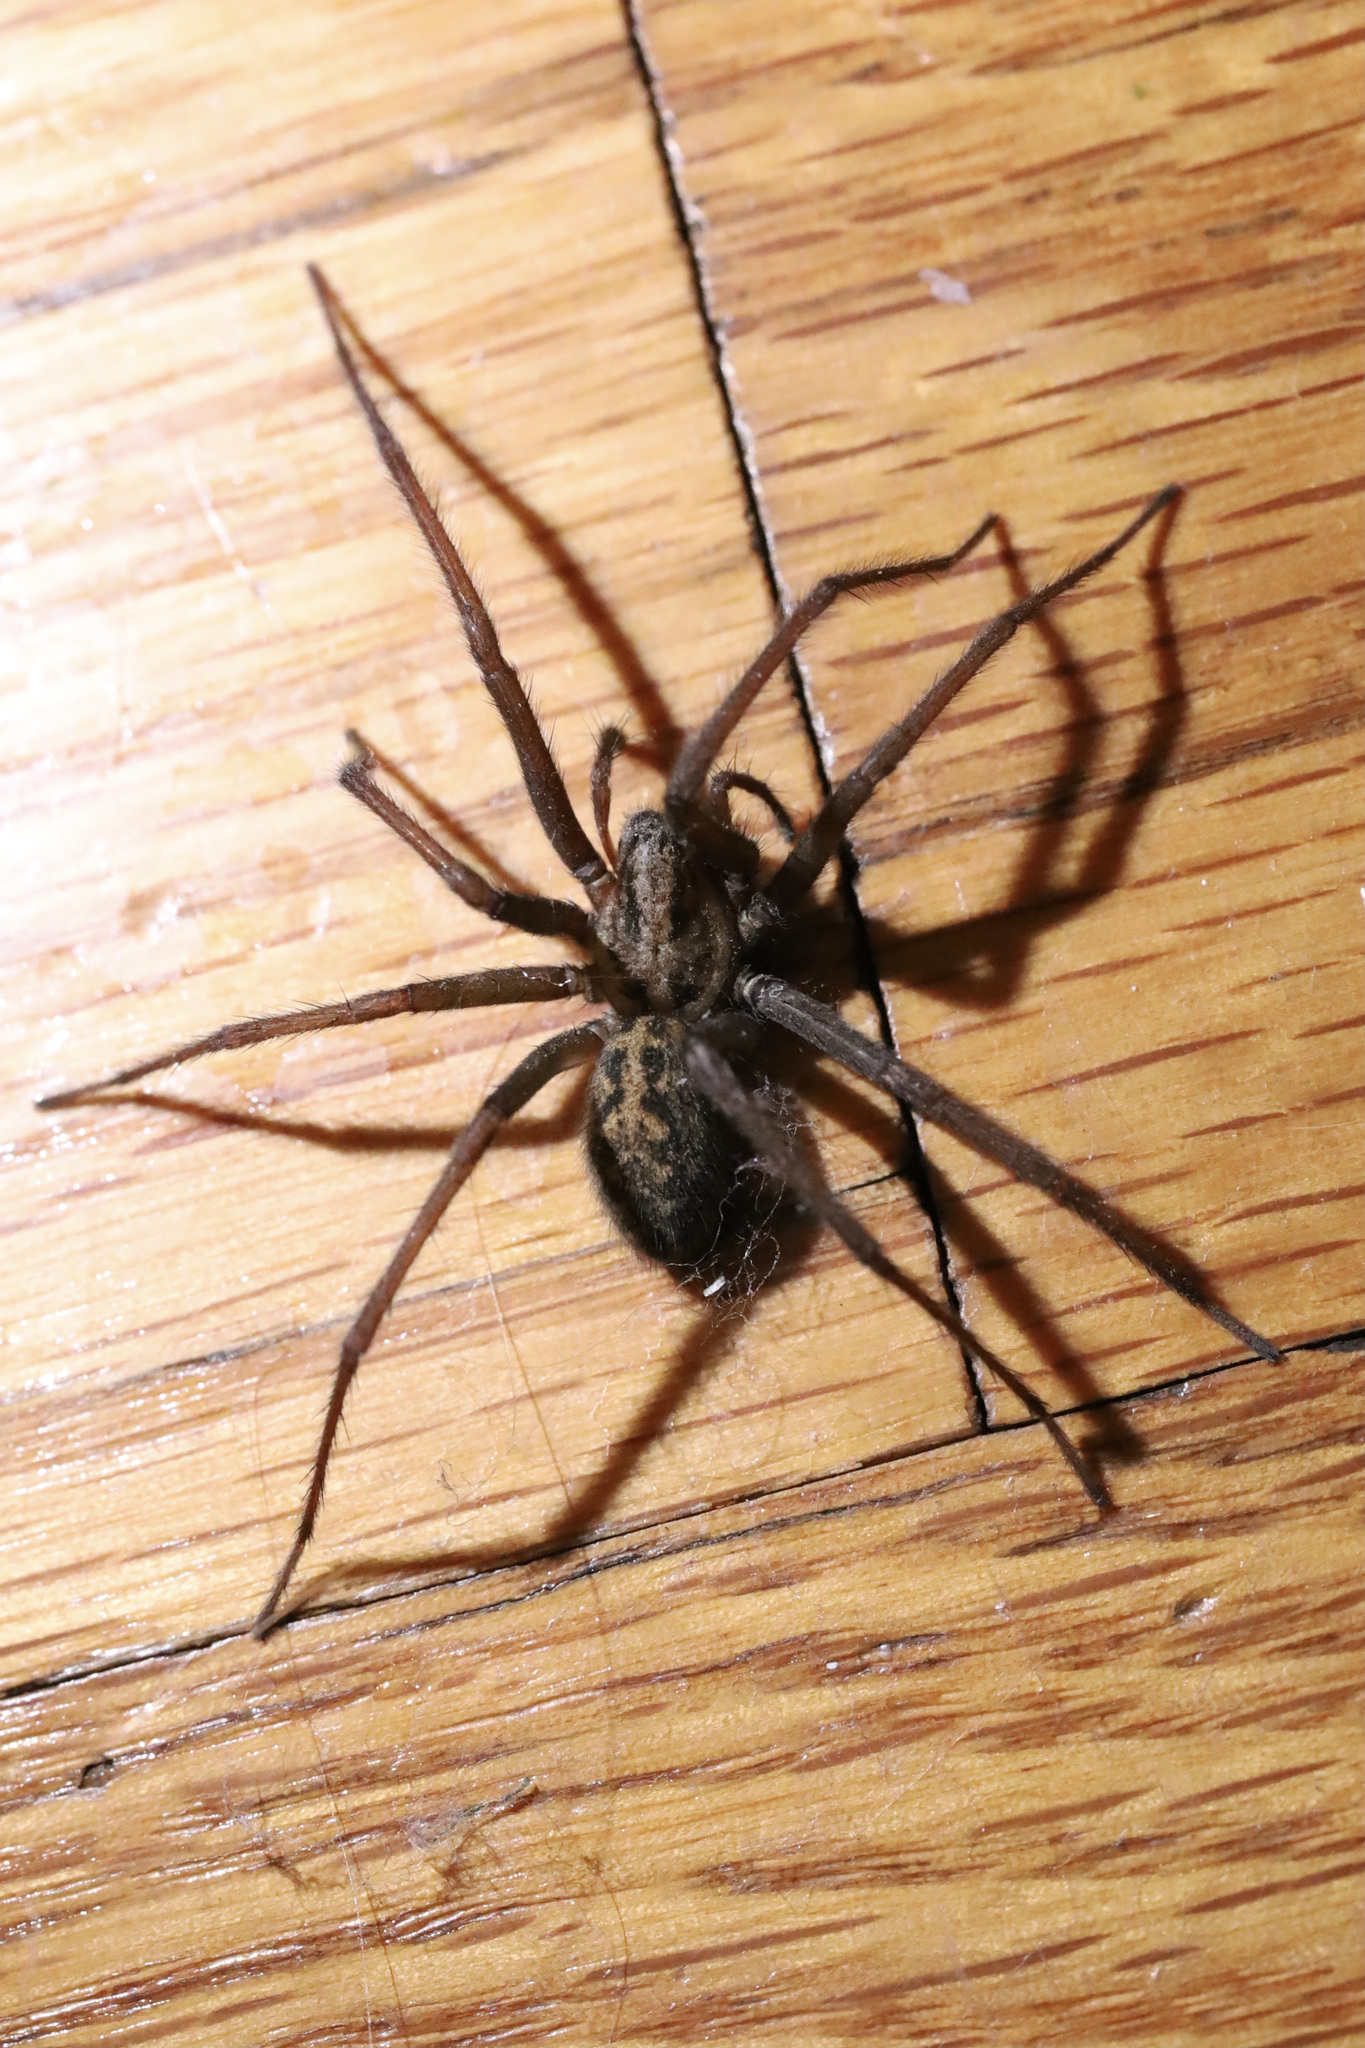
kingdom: Animalia
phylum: Arthropoda
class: Arachnida
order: Araneae
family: Agelenidae
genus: Eratigena
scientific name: Eratigena duellica
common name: Giant house spider
